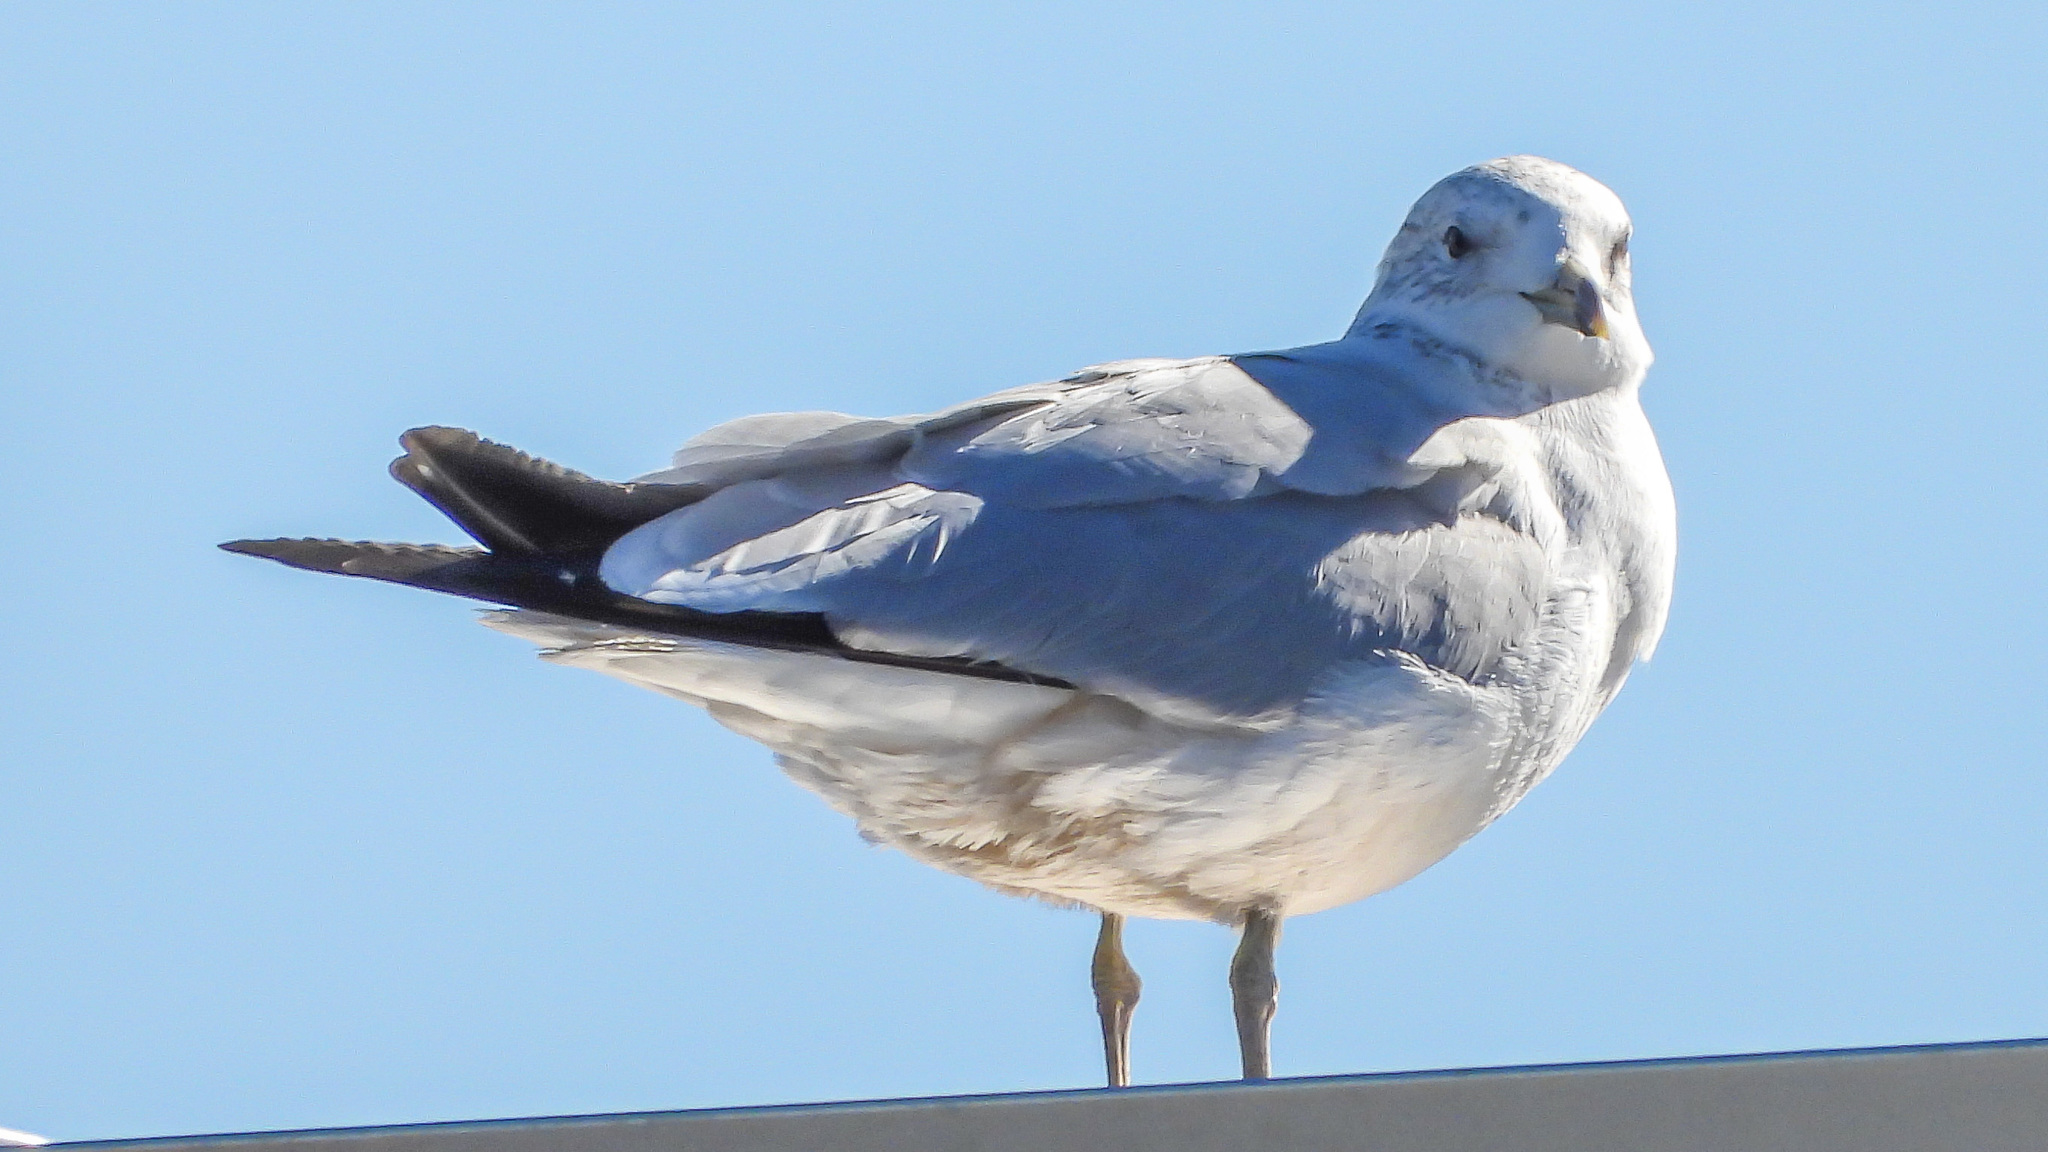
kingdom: Animalia
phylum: Chordata
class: Aves
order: Charadriiformes
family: Laridae
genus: Larus
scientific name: Larus delawarensis
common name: Ring-billed gull
